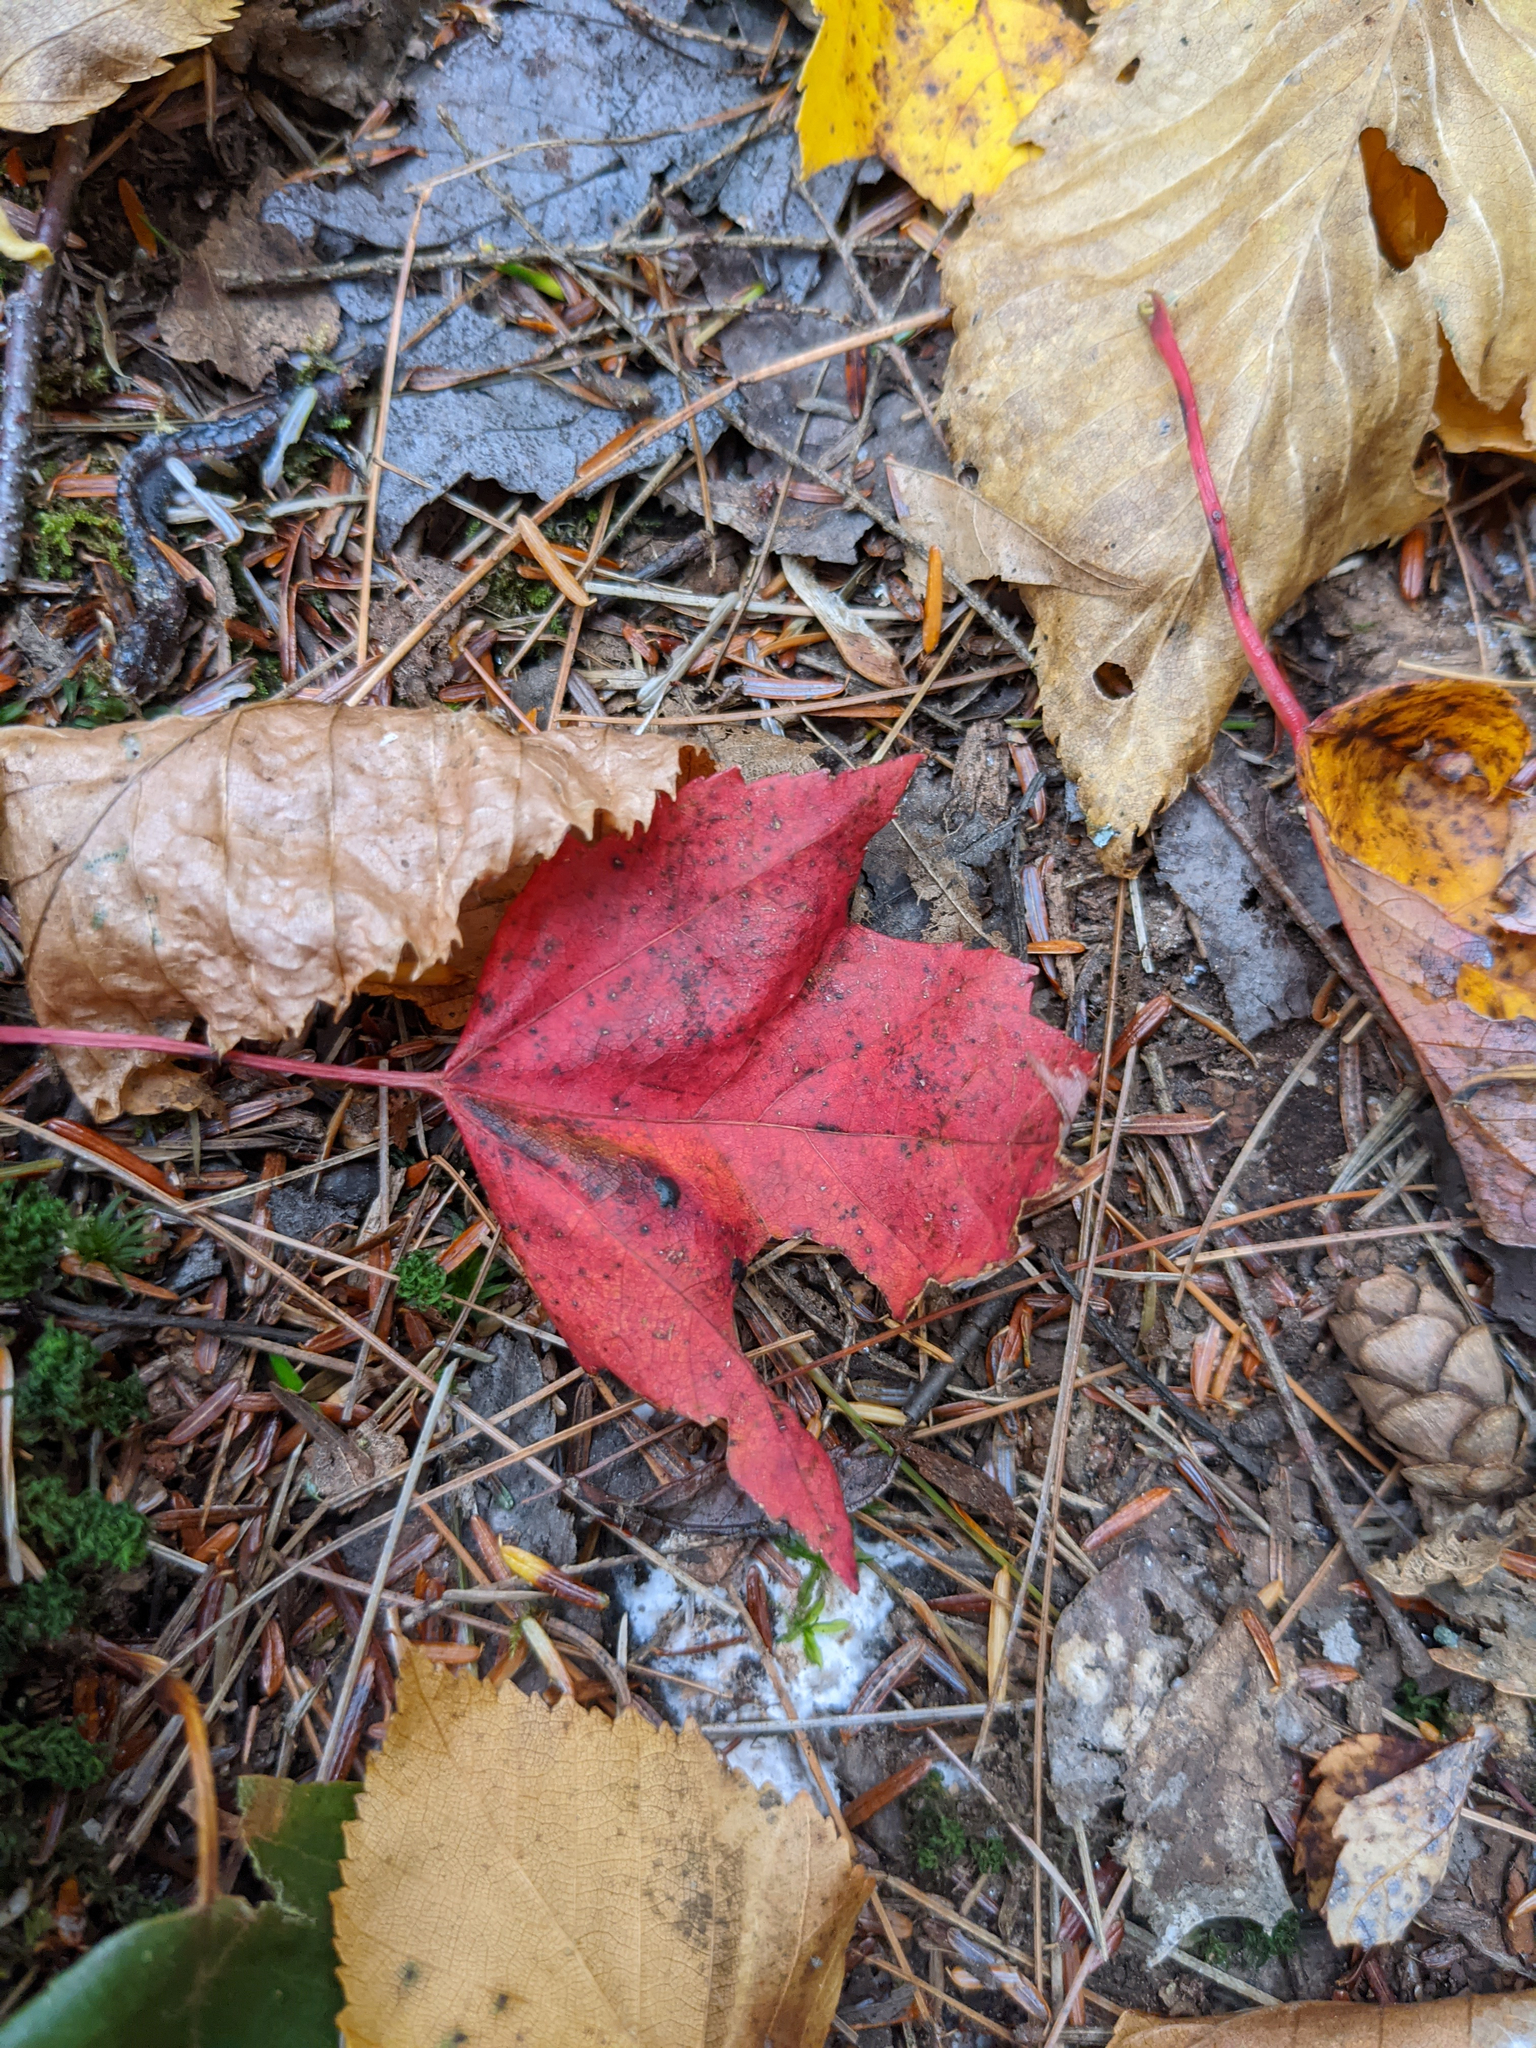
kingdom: Plantae
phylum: Tracheophyta
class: Magnoliopsida
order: Sapindales
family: Sapindaceae
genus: Acer
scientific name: Acer rubrum
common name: Red maple
